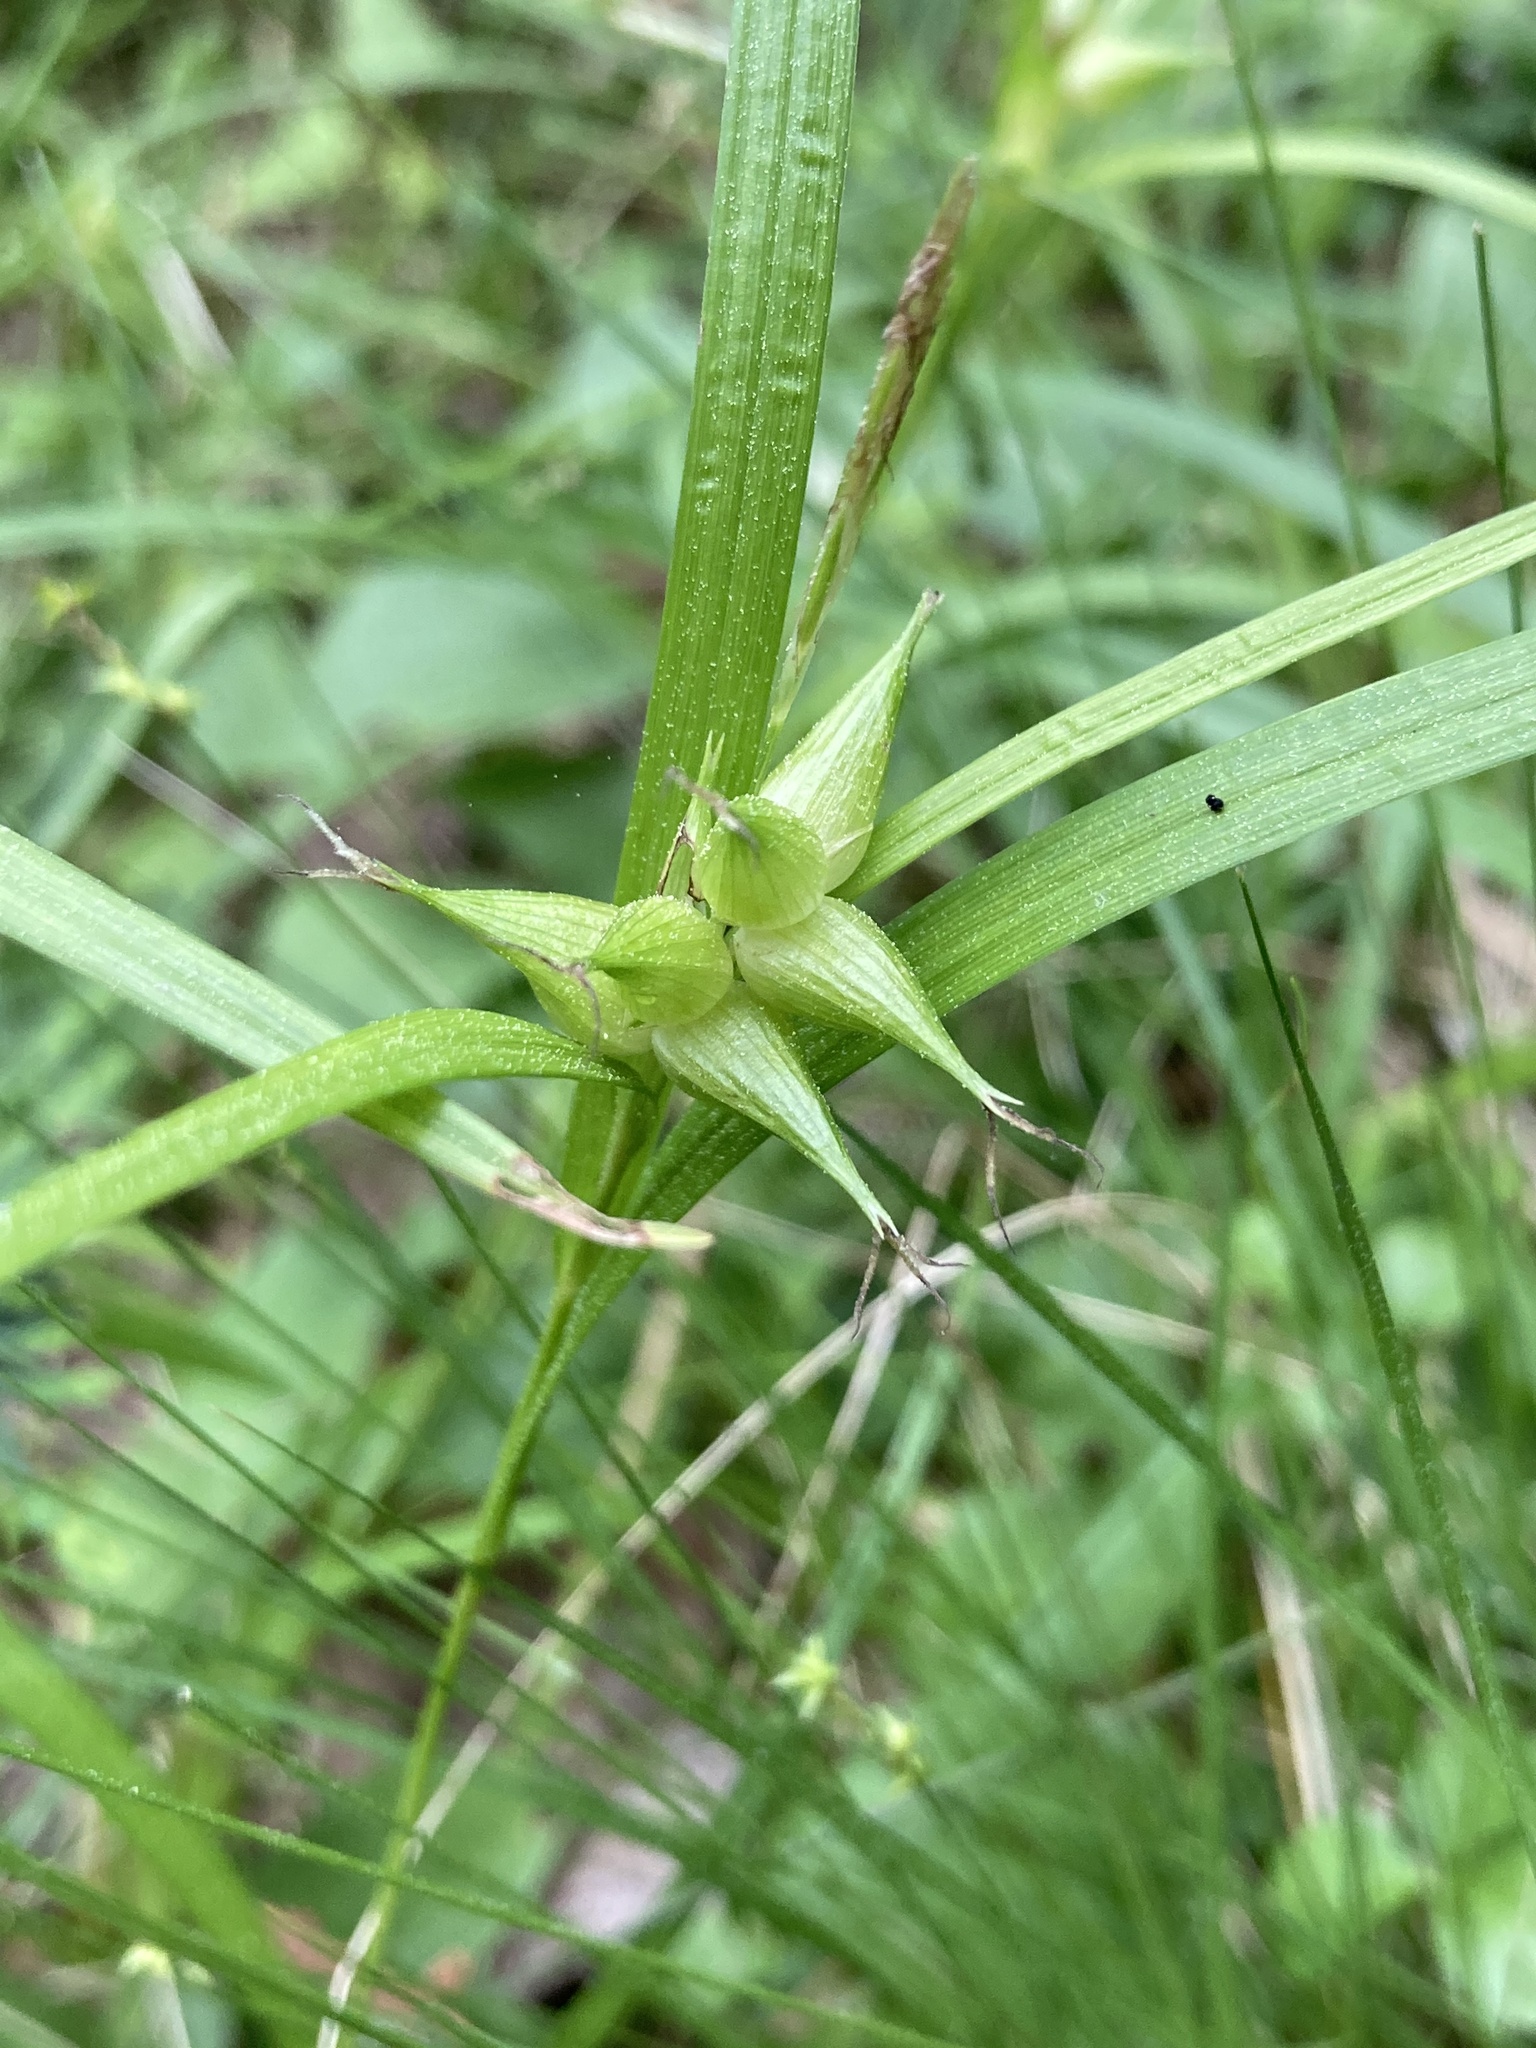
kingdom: Plantae
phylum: Tracheophyta
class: Liliopsida
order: Poales
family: Cyperaceae
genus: Carex
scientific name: Carex intumescens
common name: Greater bladder sedge
